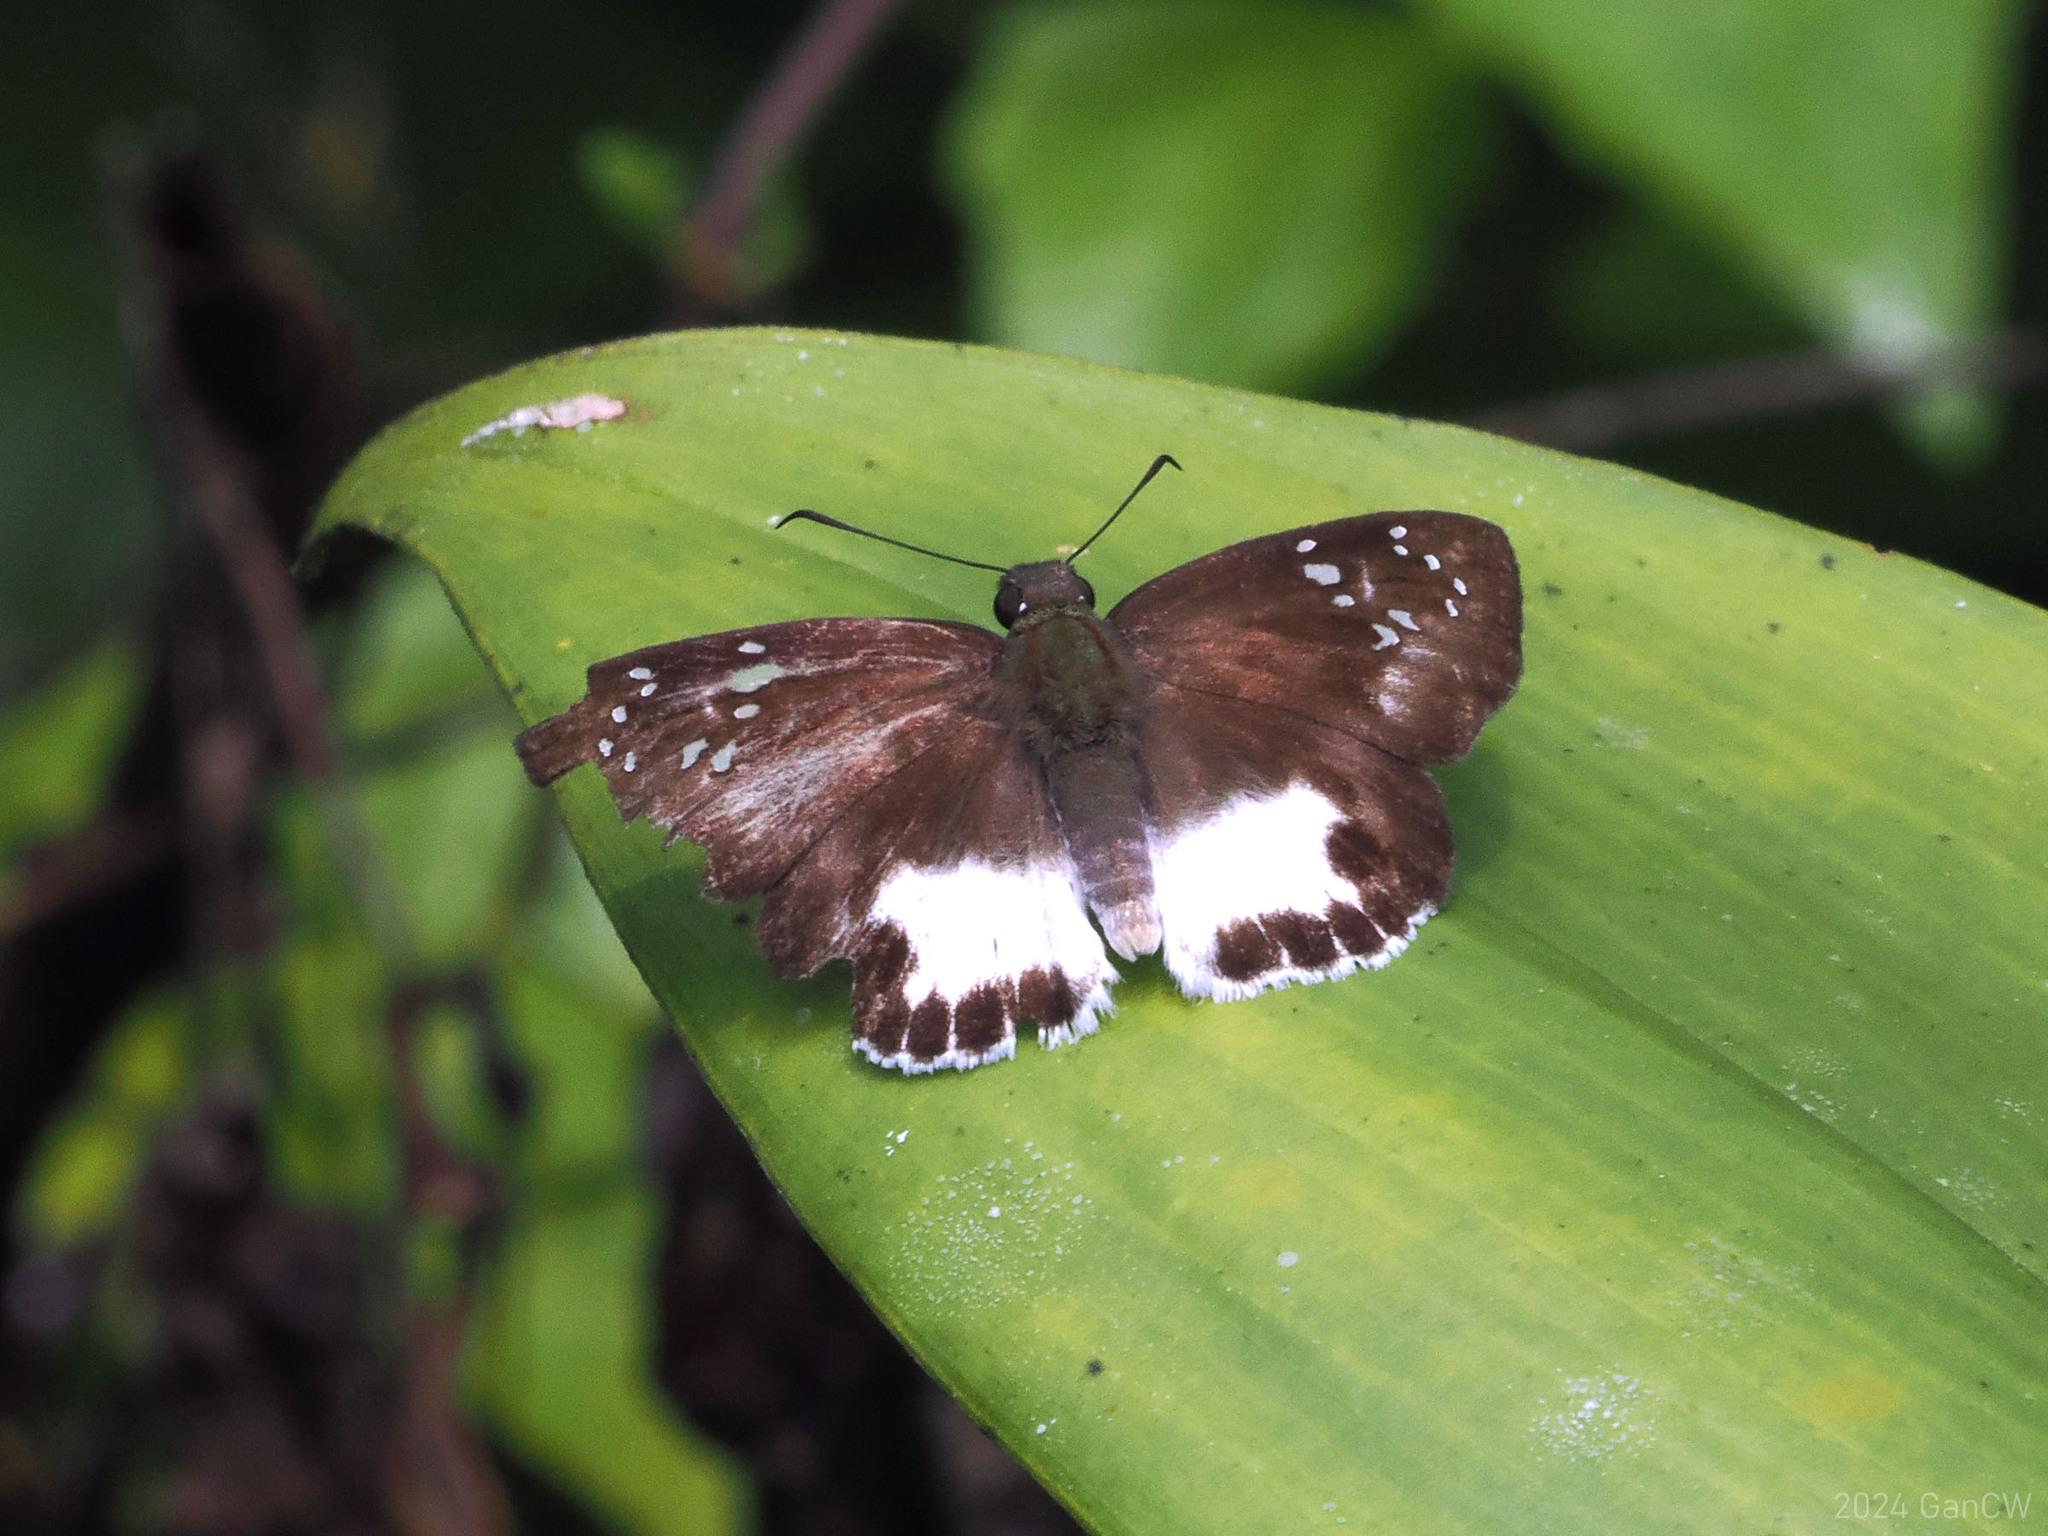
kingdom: Animalia
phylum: Arthropoda
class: Insecta
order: Lepidoptera
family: Hesperiidae
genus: Tagiades
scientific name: Tagiades trebellius
